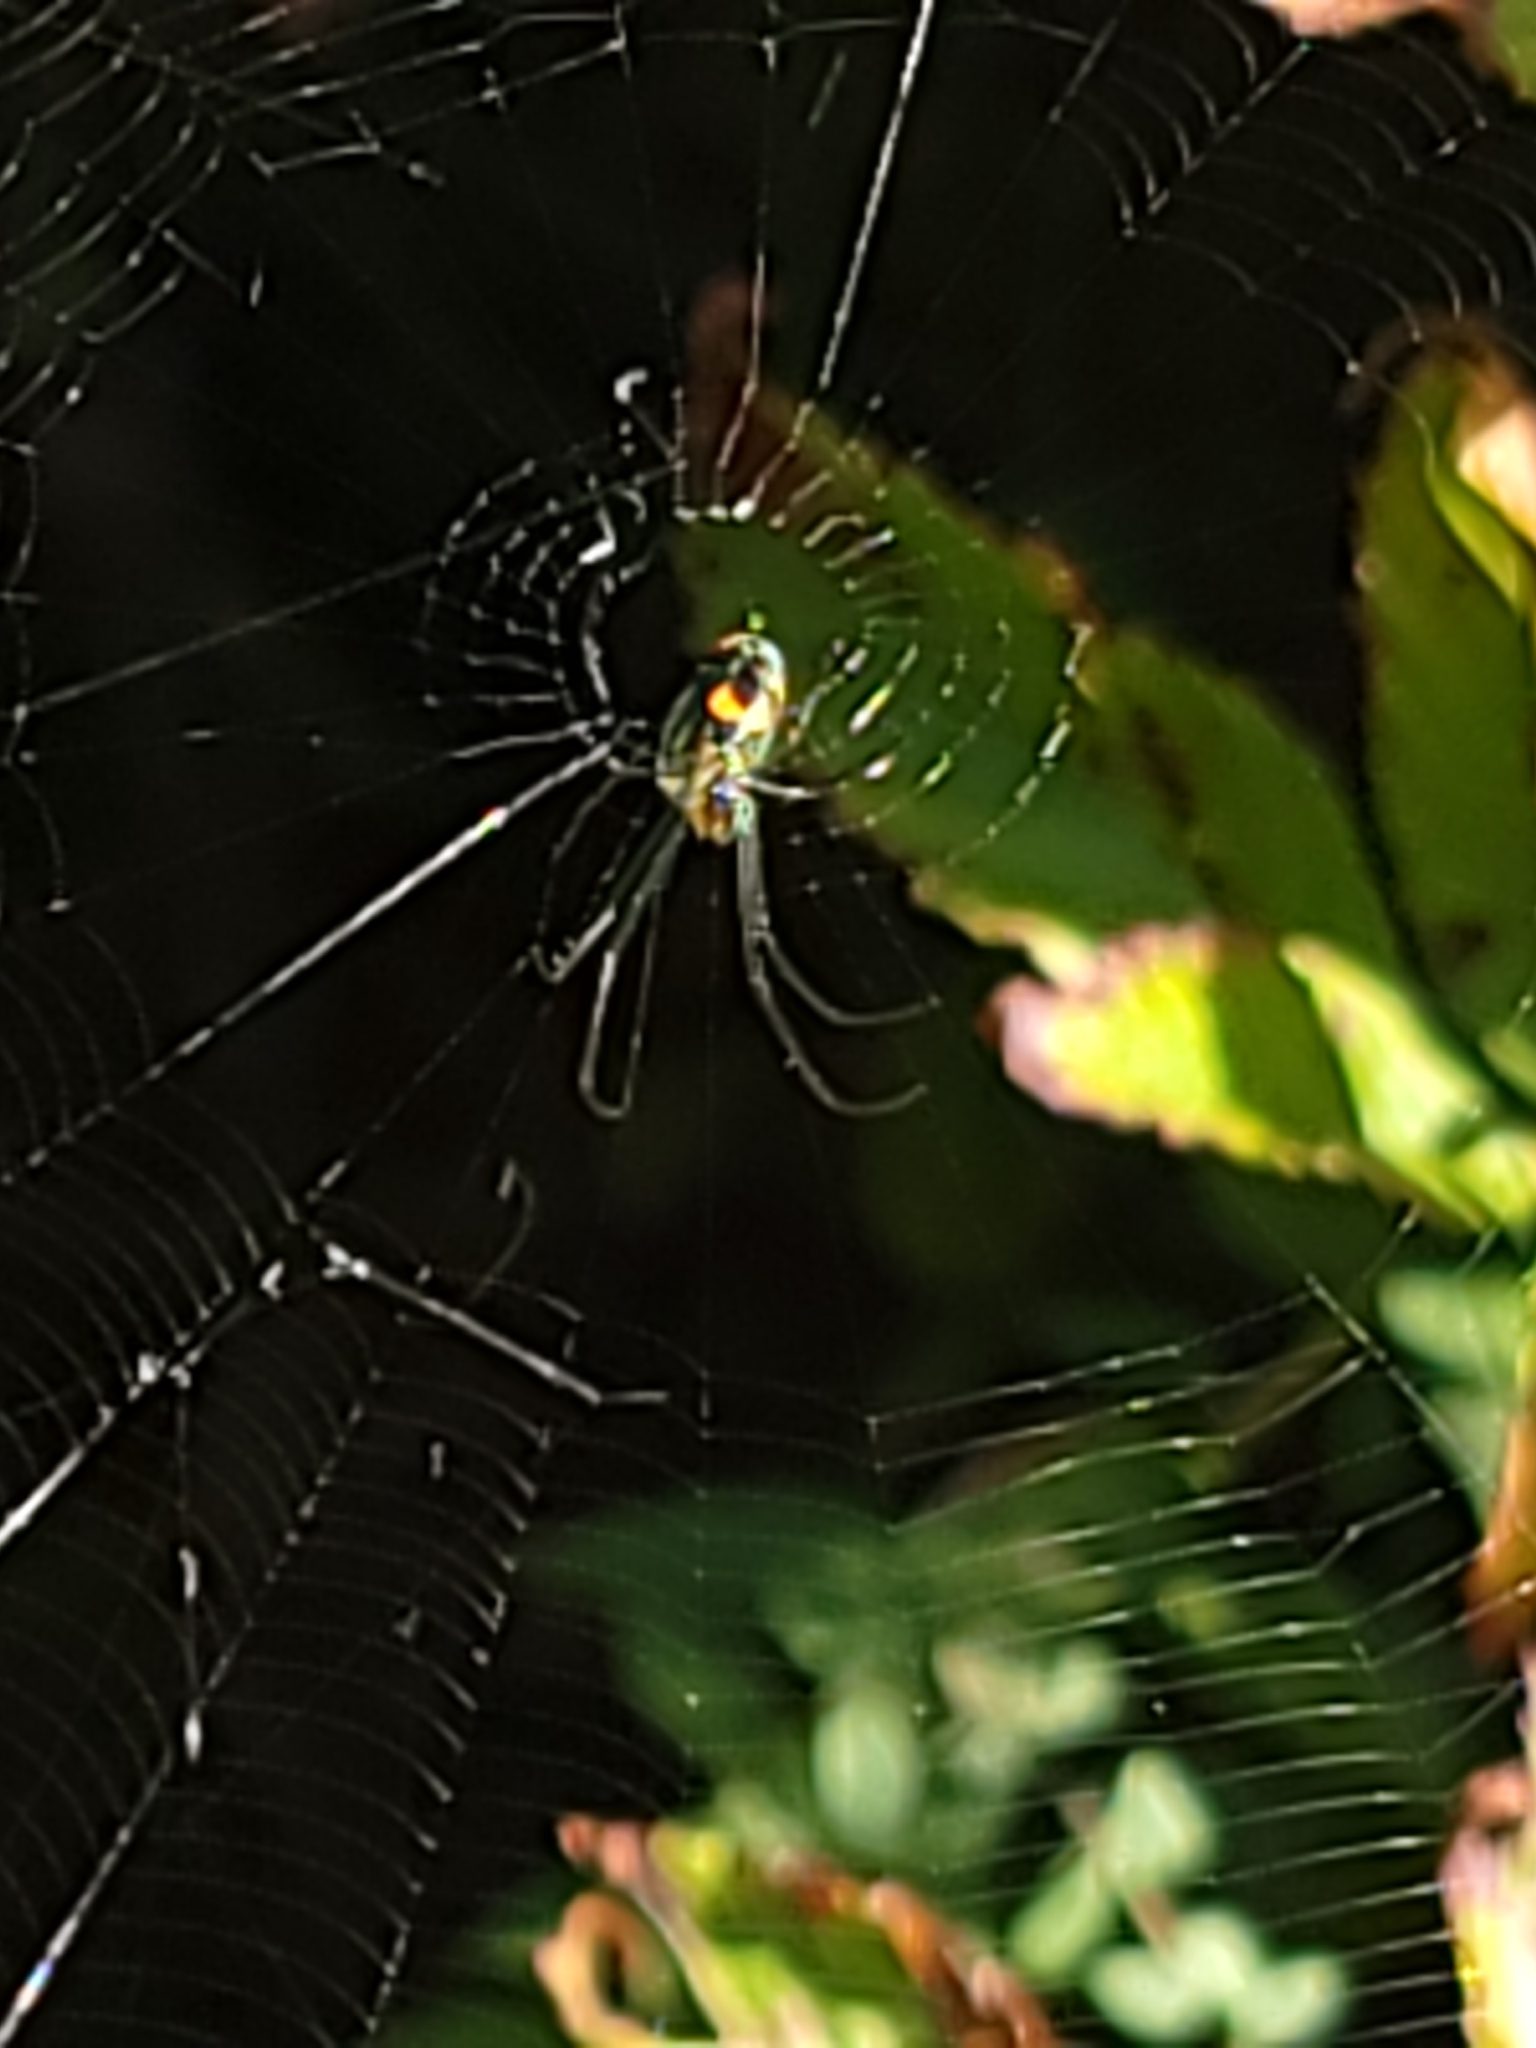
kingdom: Animalia
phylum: Arthropoda
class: Arachnida
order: Araneae
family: Tetragnathidae
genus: Leucauge
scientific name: Leucauge argyrobapta
